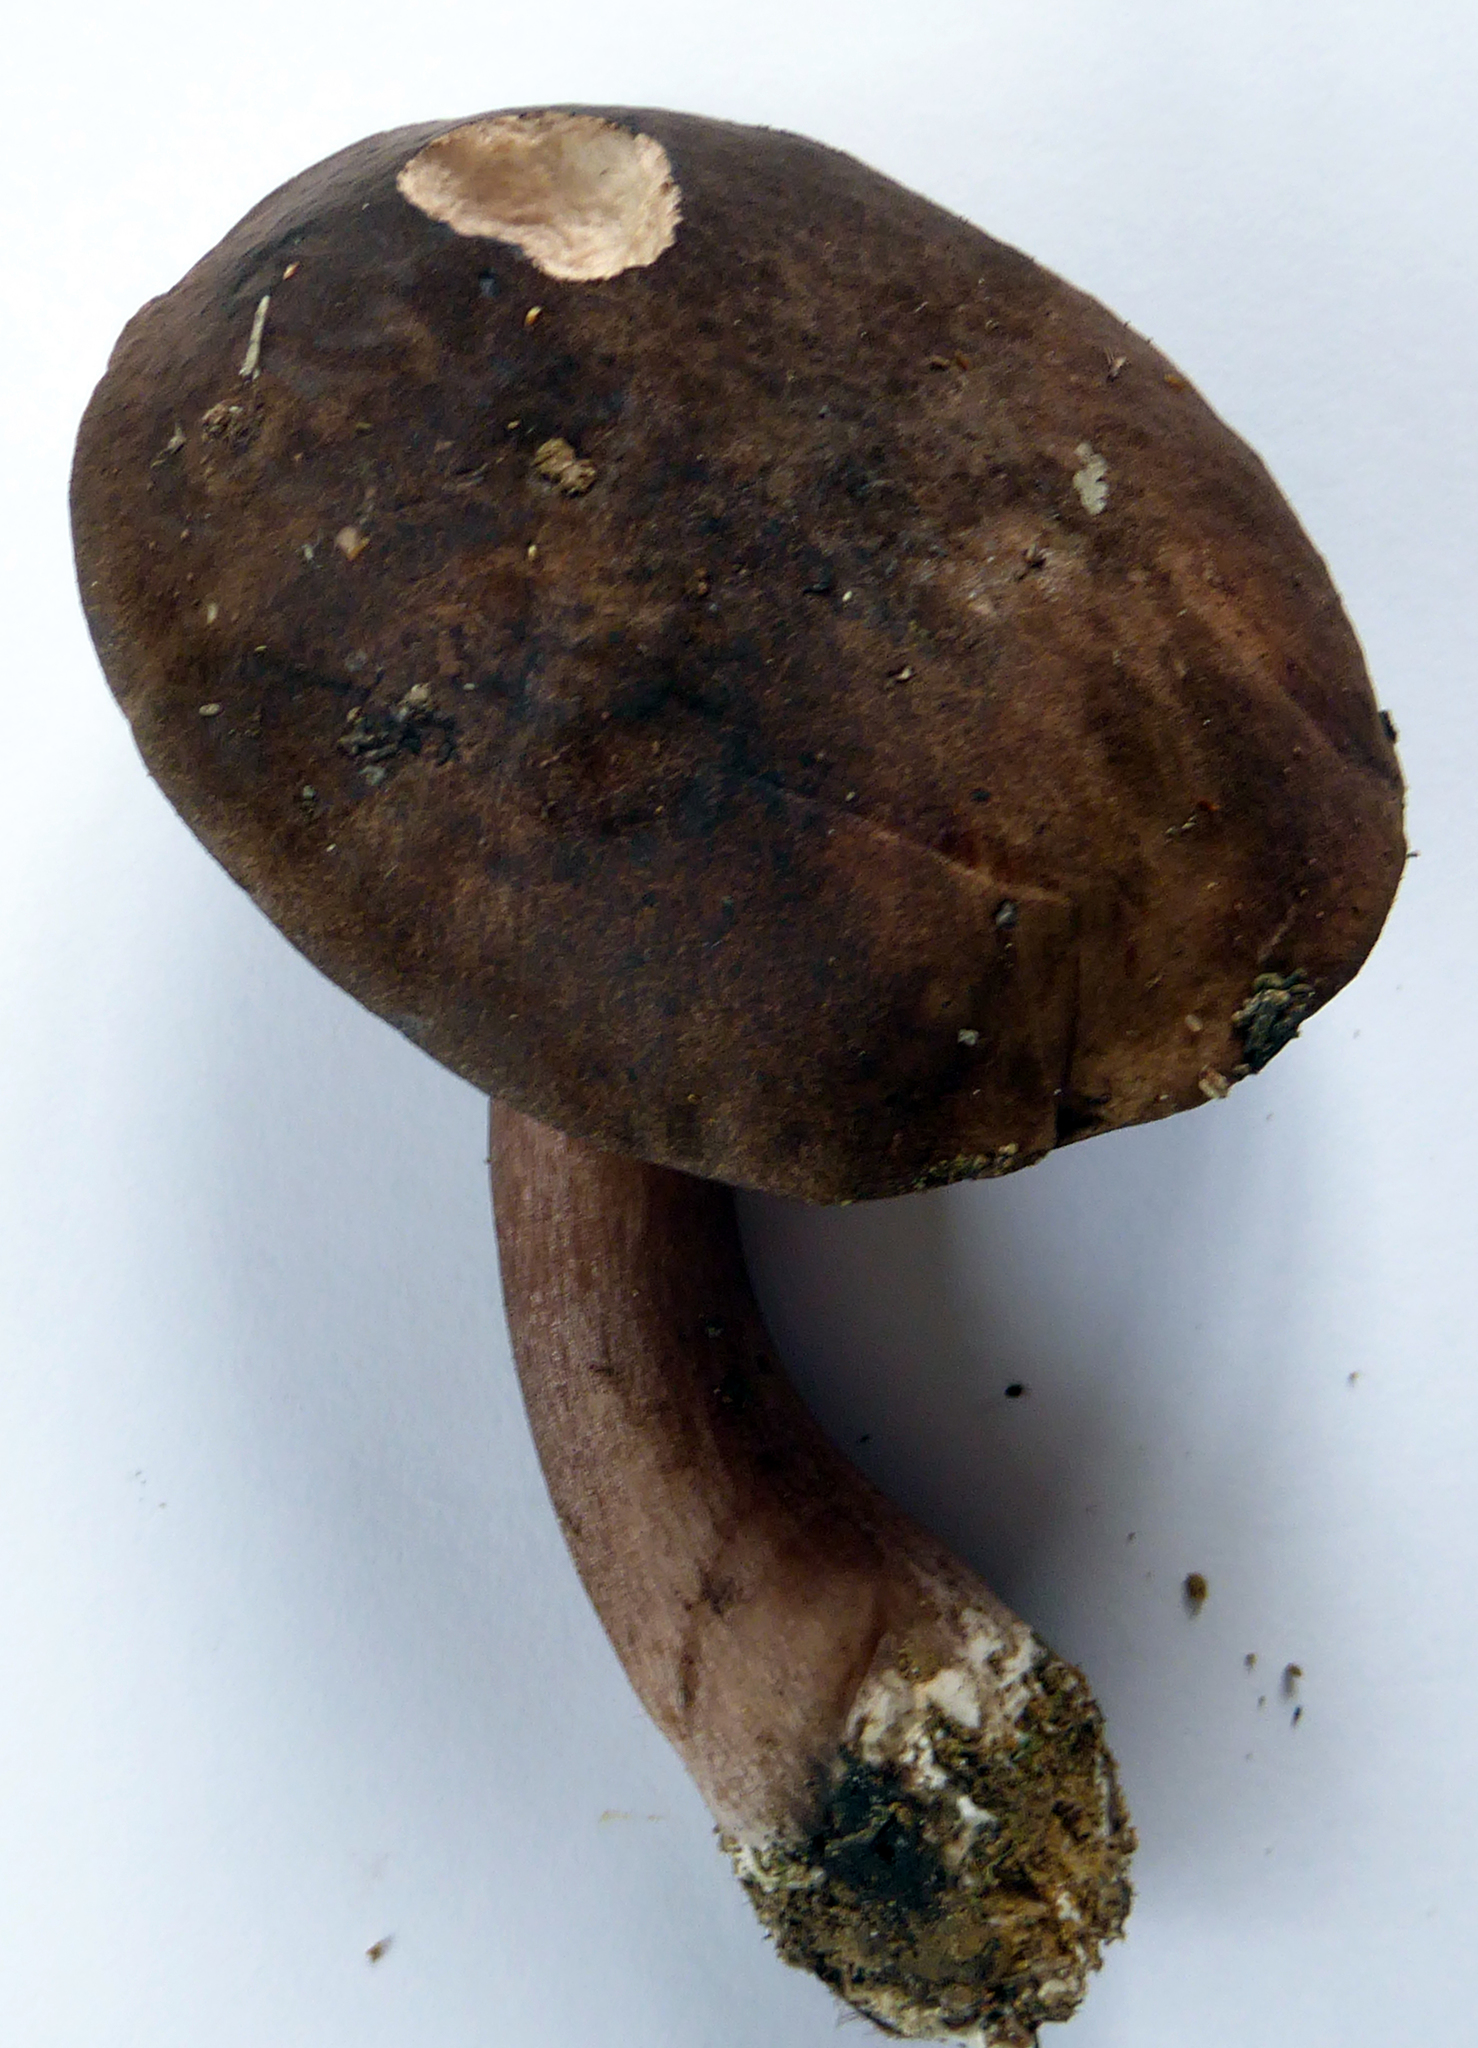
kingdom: Fungi
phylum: Basidiomycota
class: Agaricomycetes
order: Boletales
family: Boletaceae
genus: Porphyrellus
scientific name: Porphyrellus formosus
